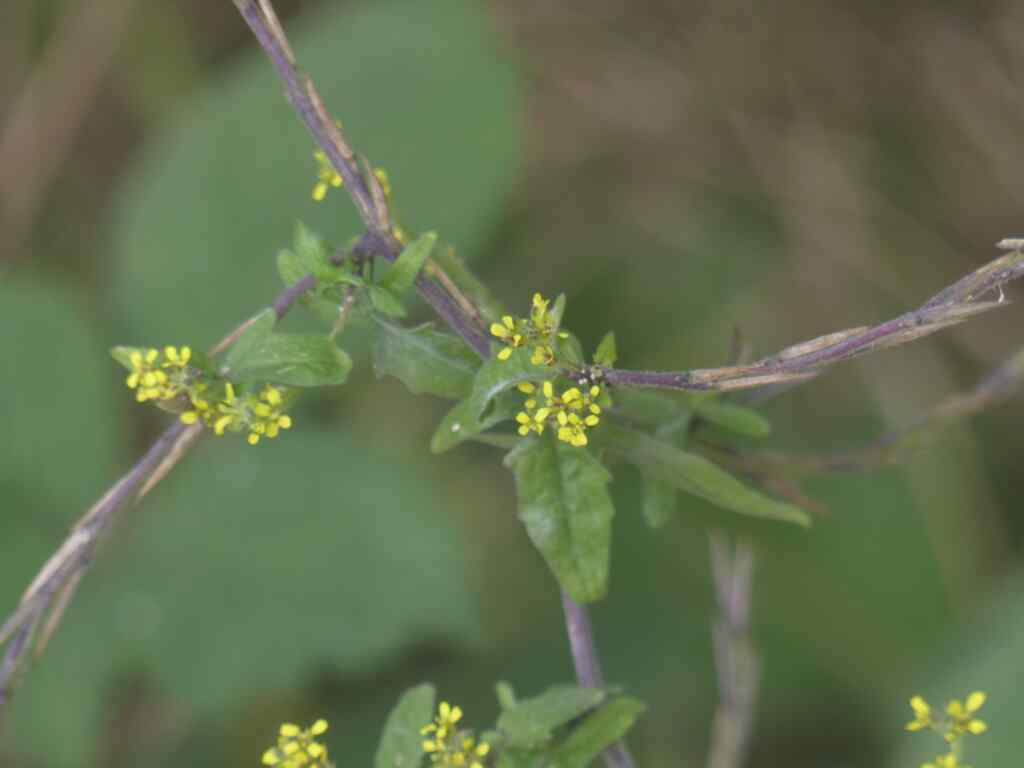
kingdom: Plantae
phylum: Tracheophyta
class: Magnoliopsida
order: Brassicales
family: Brassicaceae
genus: Sisymbrium
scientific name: Sisymbrium officinale
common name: Hedge mustard
